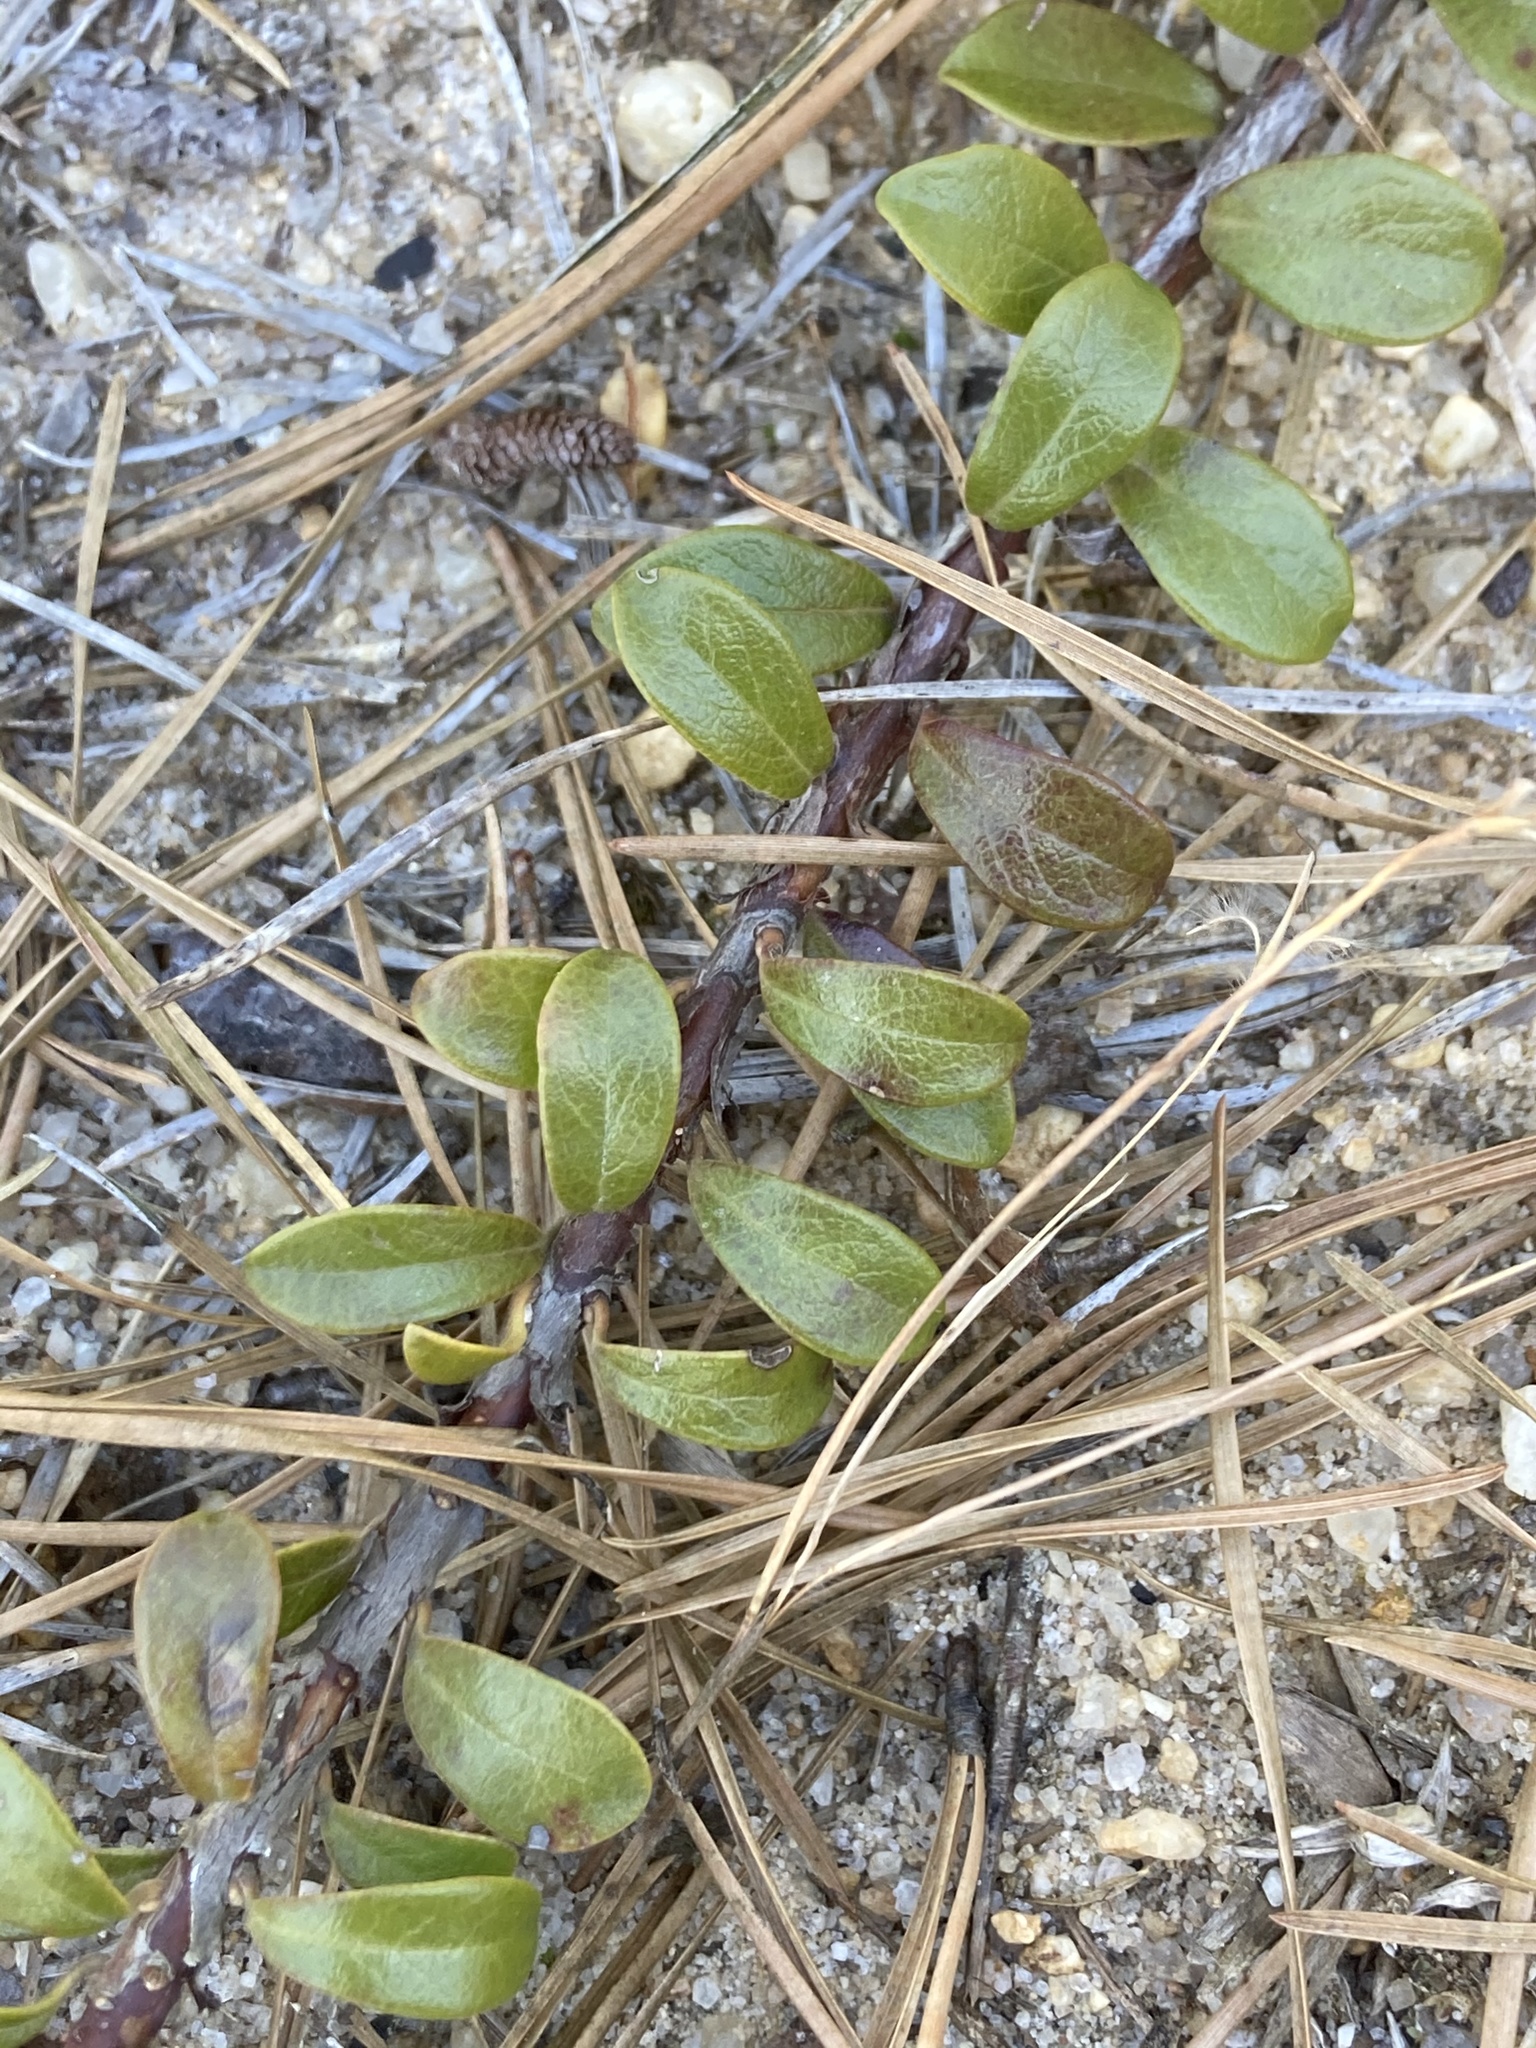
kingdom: Plantae
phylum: Tracheophyta
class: Magnoliopsida
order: Ericales
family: Ericaceae
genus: Arctostaphylos
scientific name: Arctostaphylos uva-ursi
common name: Bearberry
